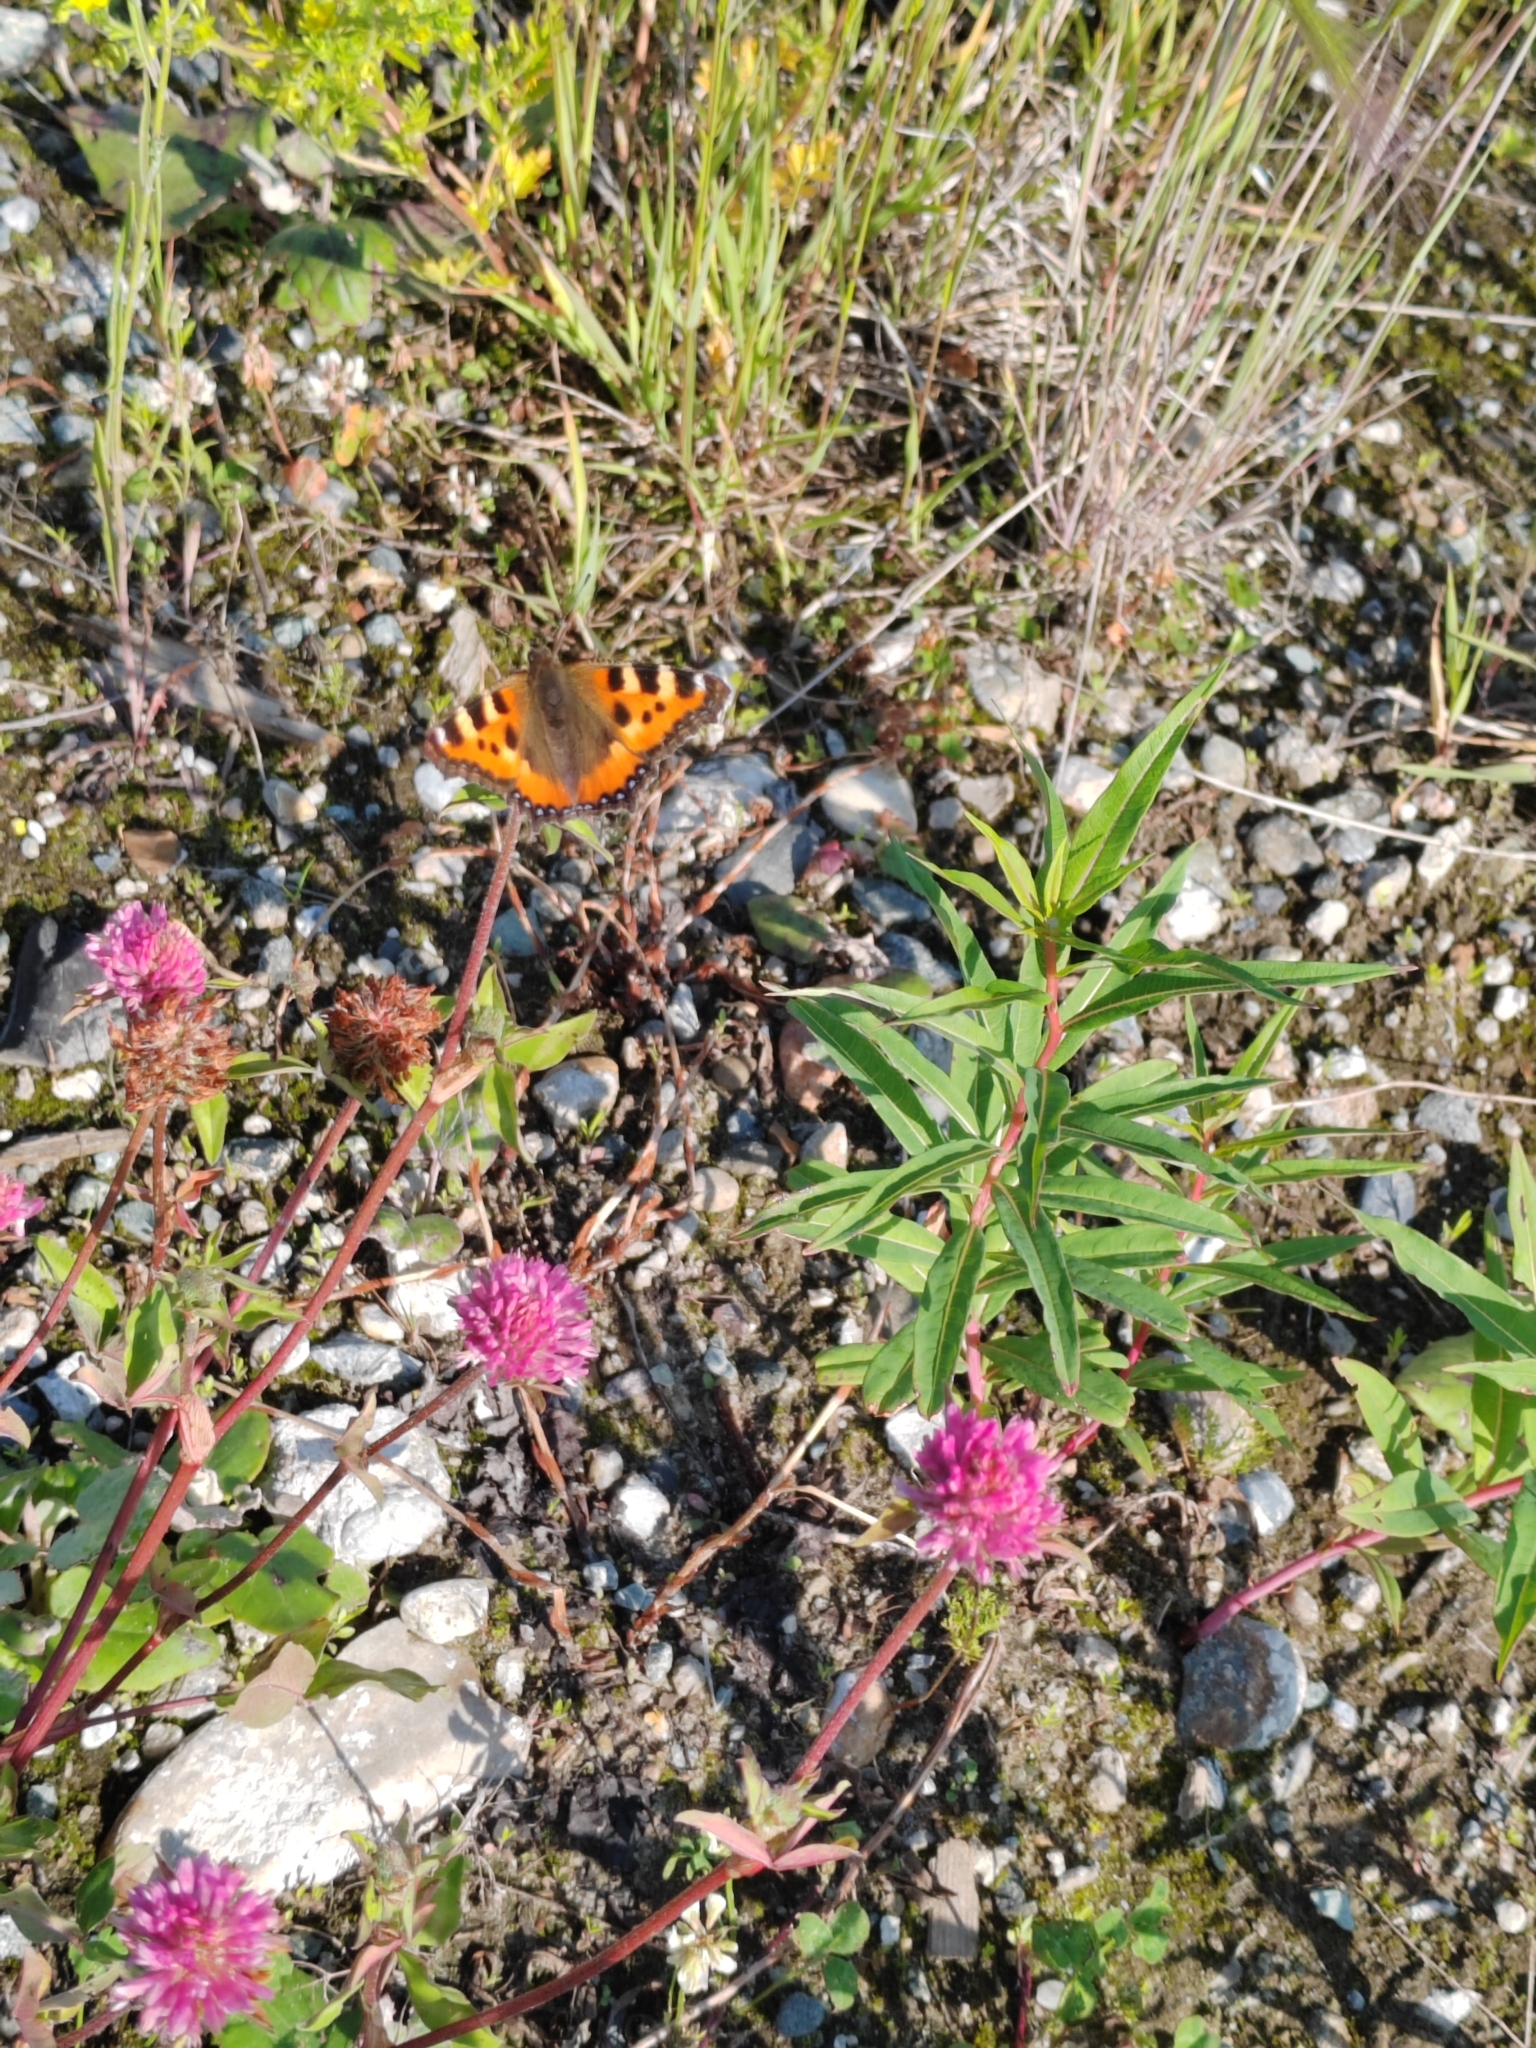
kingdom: Animalia
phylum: Arthropoda
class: Insecta
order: Lepidoptera
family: Nymphalidae
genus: Aglais
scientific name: Aglais urticae
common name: Small tortoiseshell
